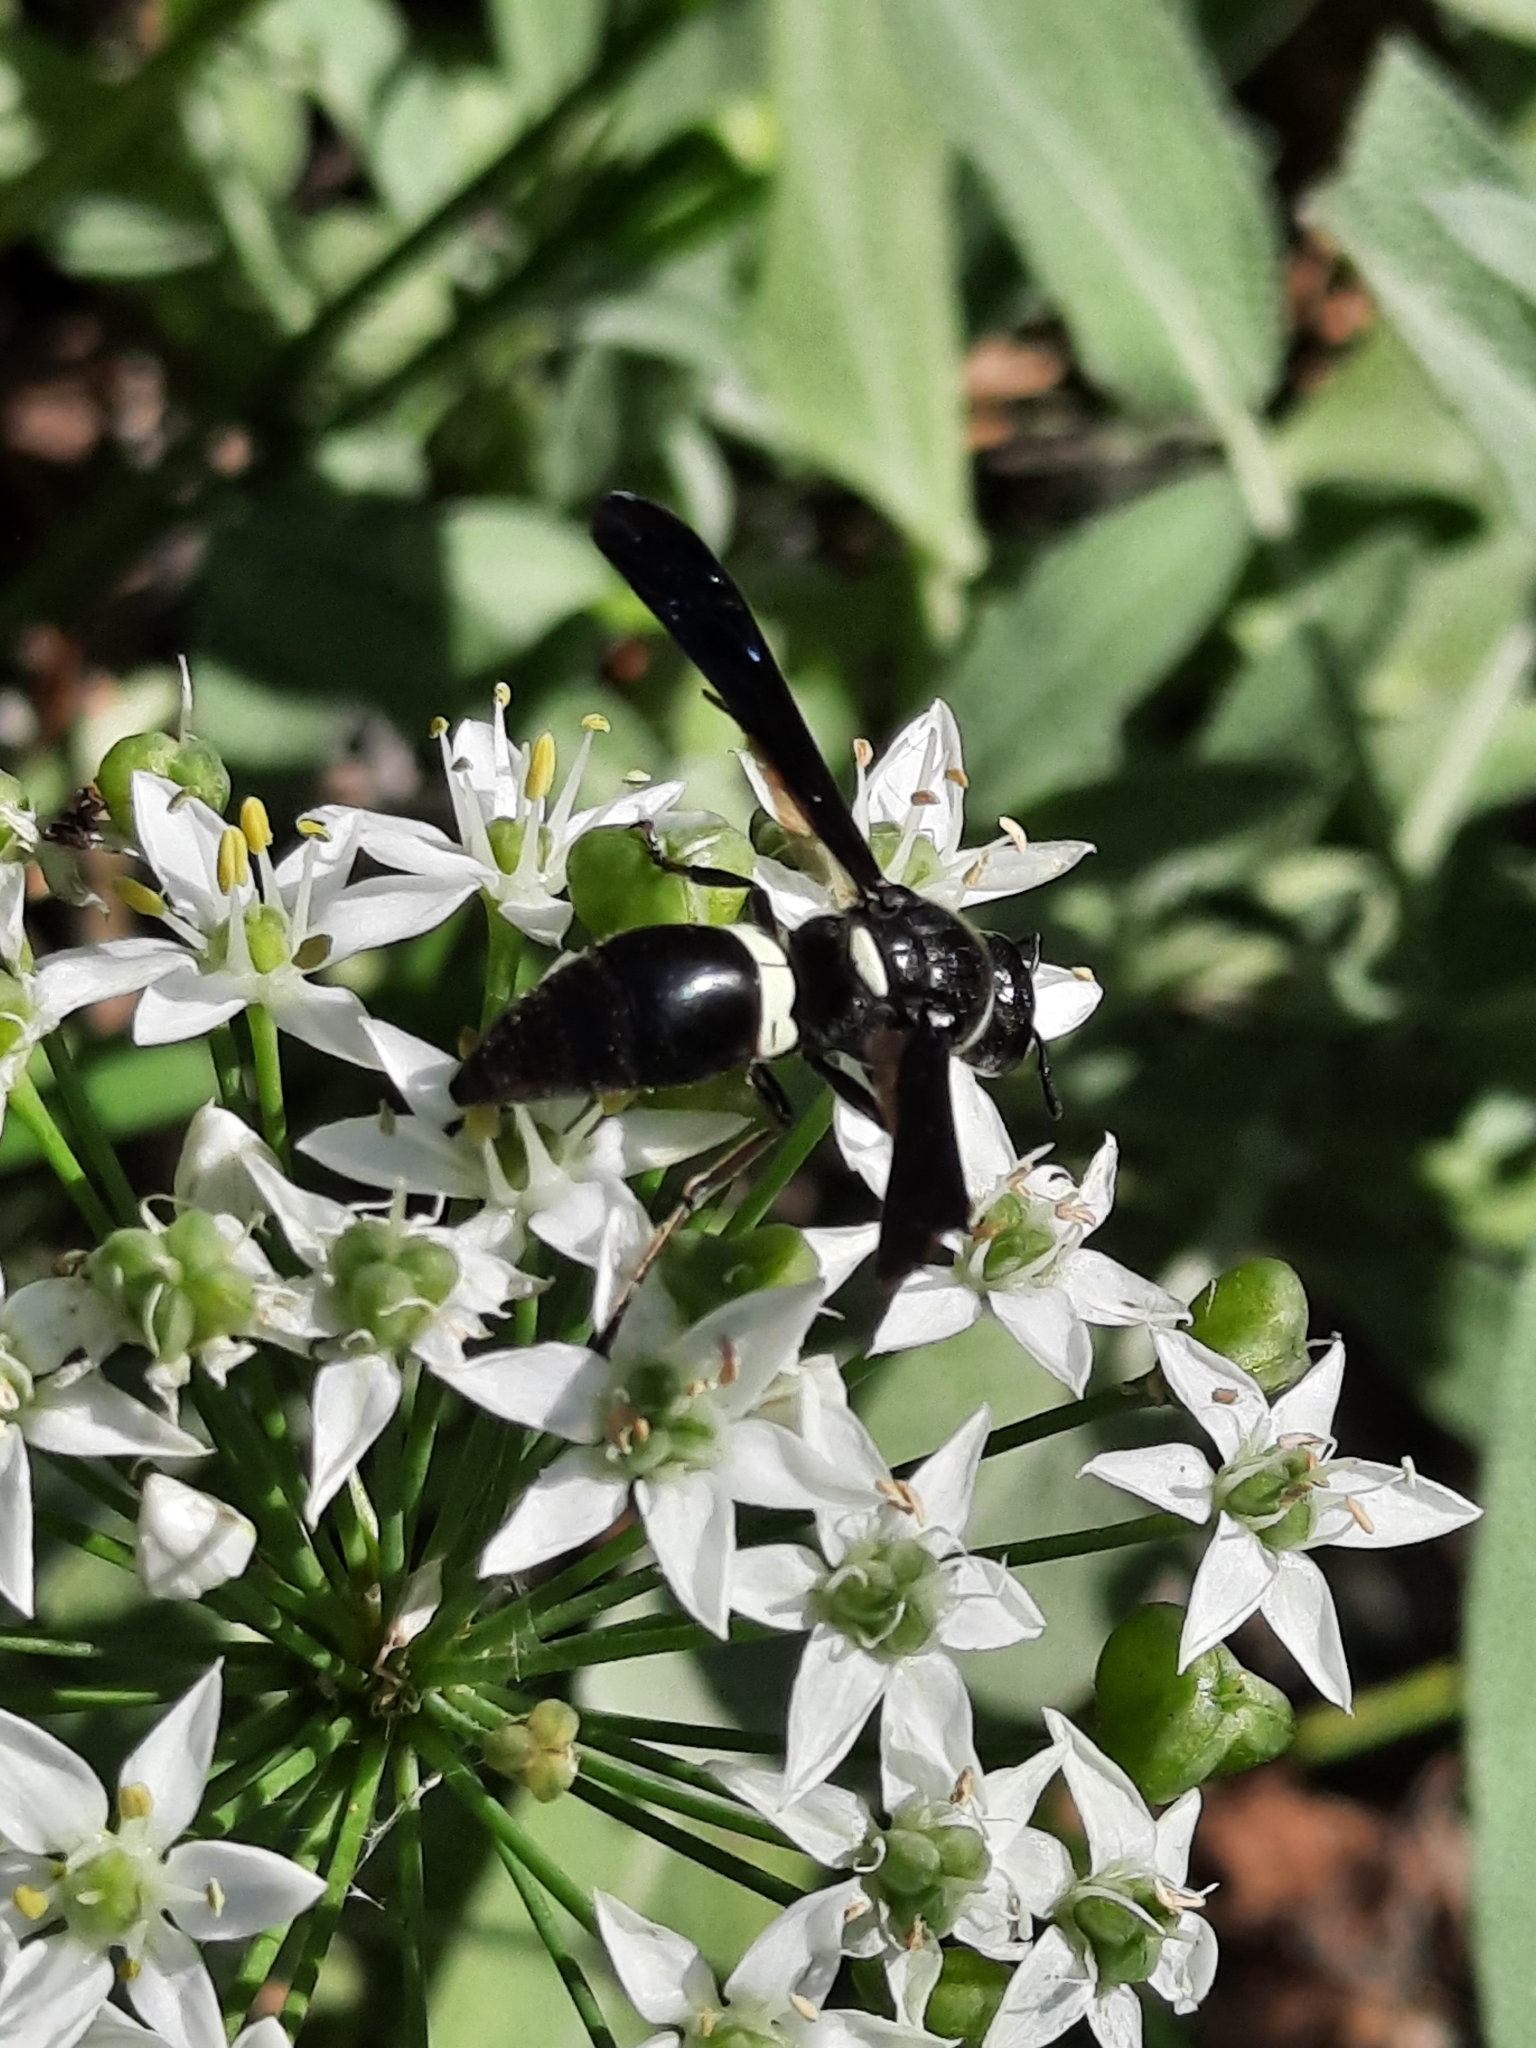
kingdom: Animalia
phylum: Arthropoda
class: Insecta
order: Hymenoptera
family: Eumenidae
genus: Monobia
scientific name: Monobia quadridens
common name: Four-toothed mason wasp
